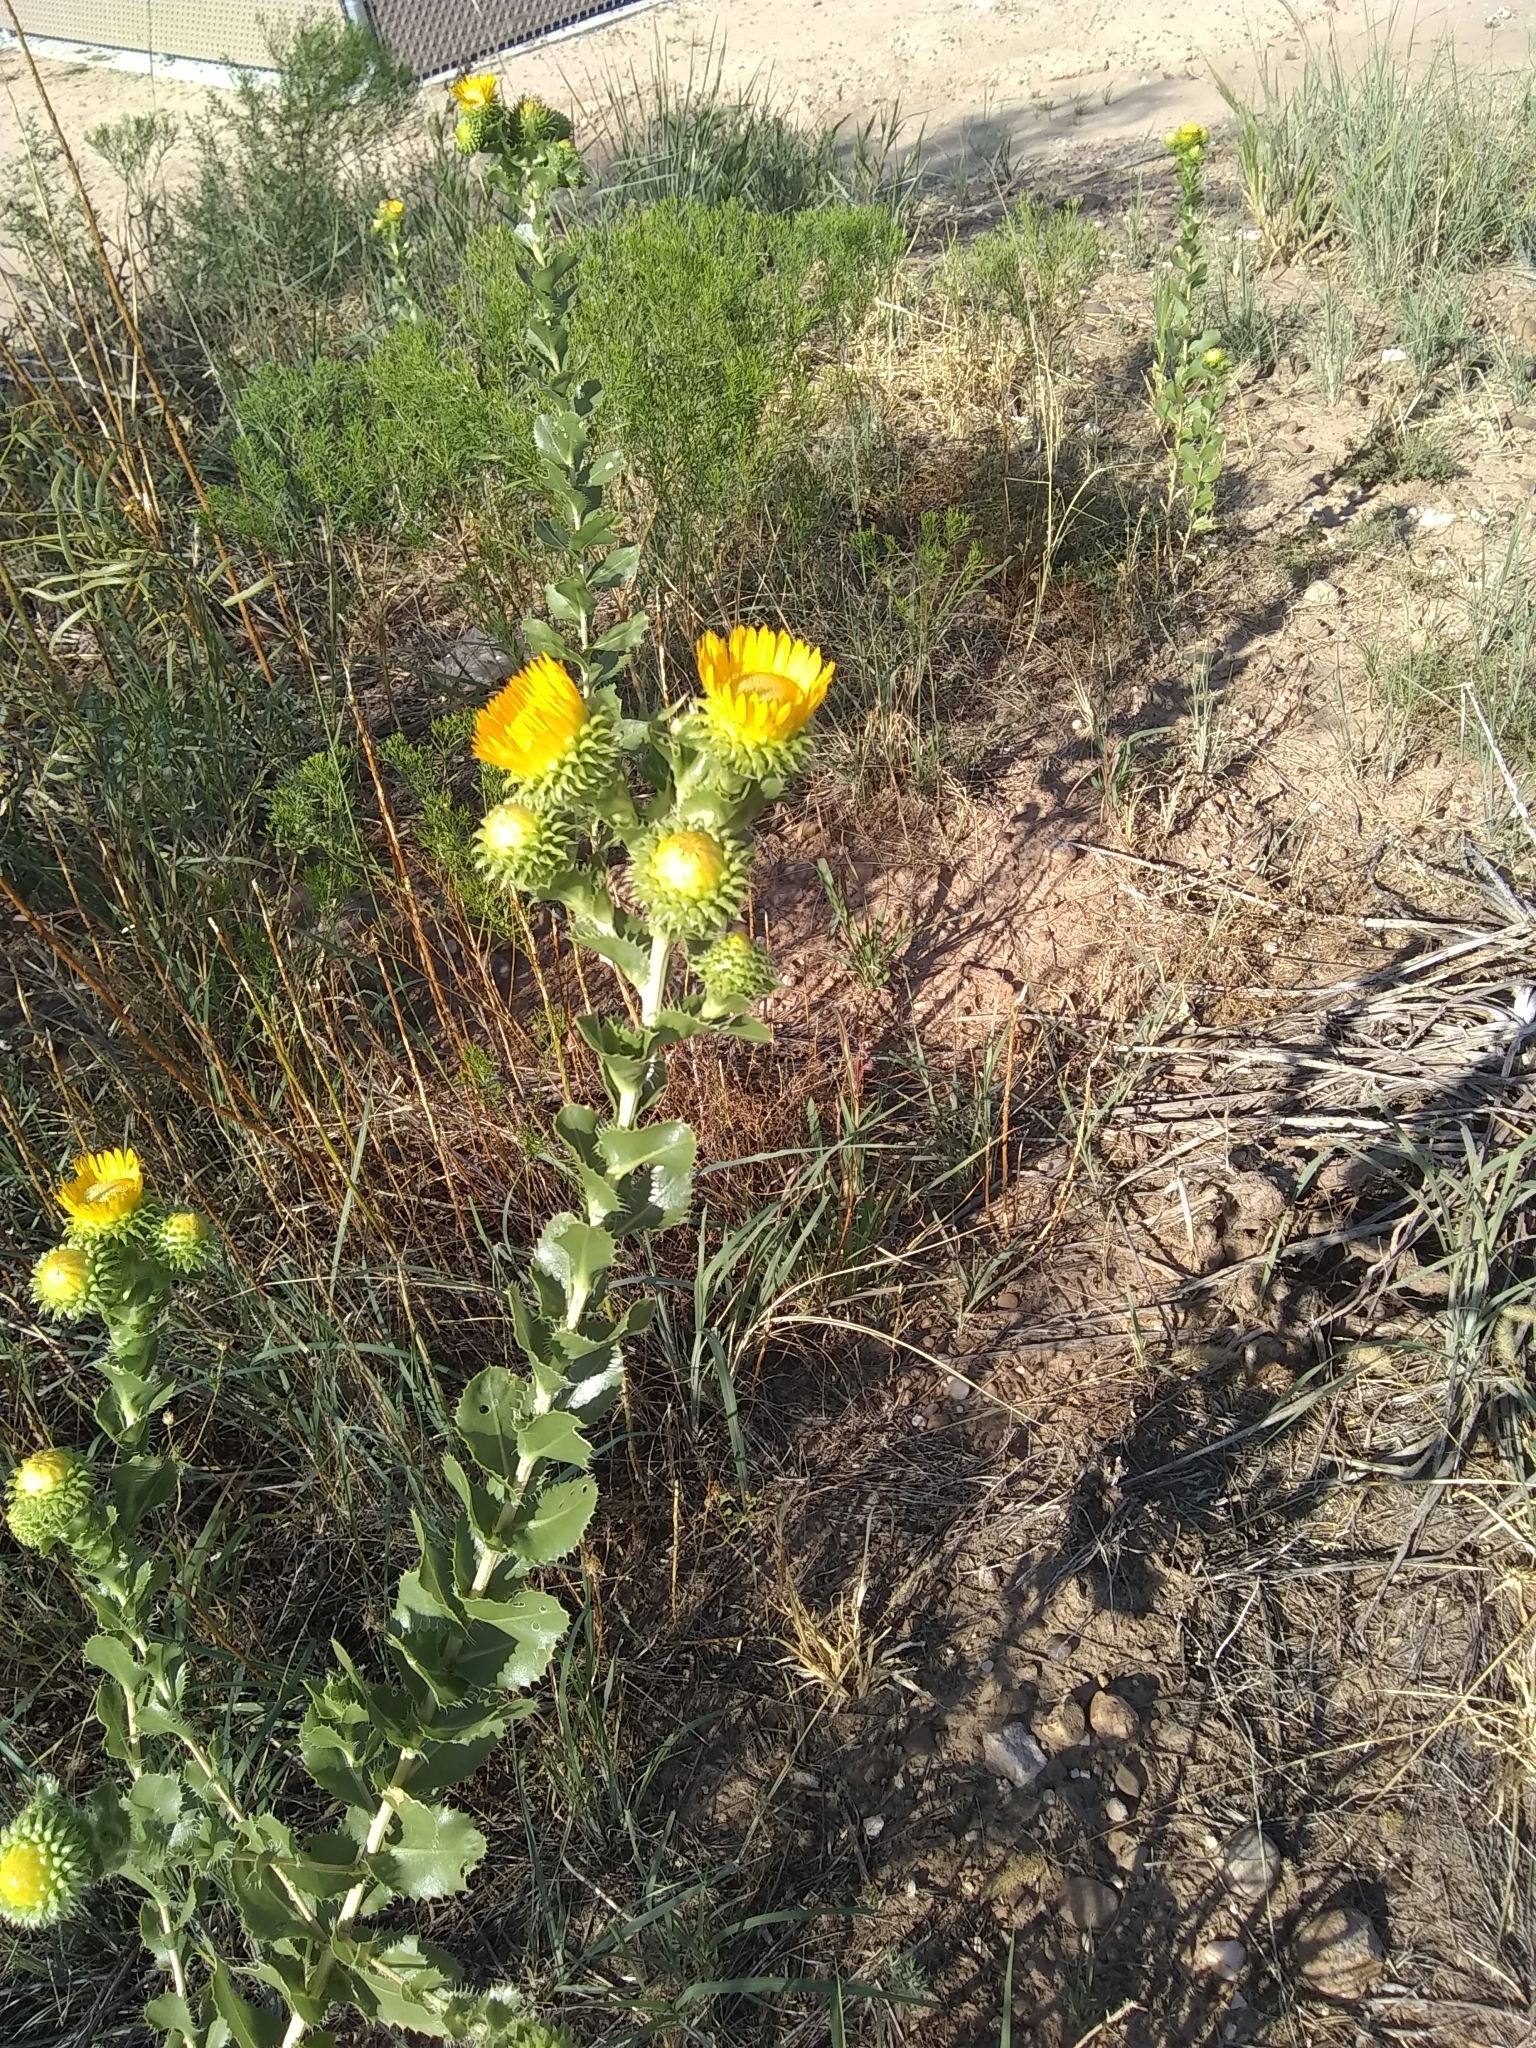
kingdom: Plantae
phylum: Tracheophyta
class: Magnoliopsida
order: Asterales
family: Asteraceae
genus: Grindelia
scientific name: Grindelia ciliata
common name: Goldenweed
